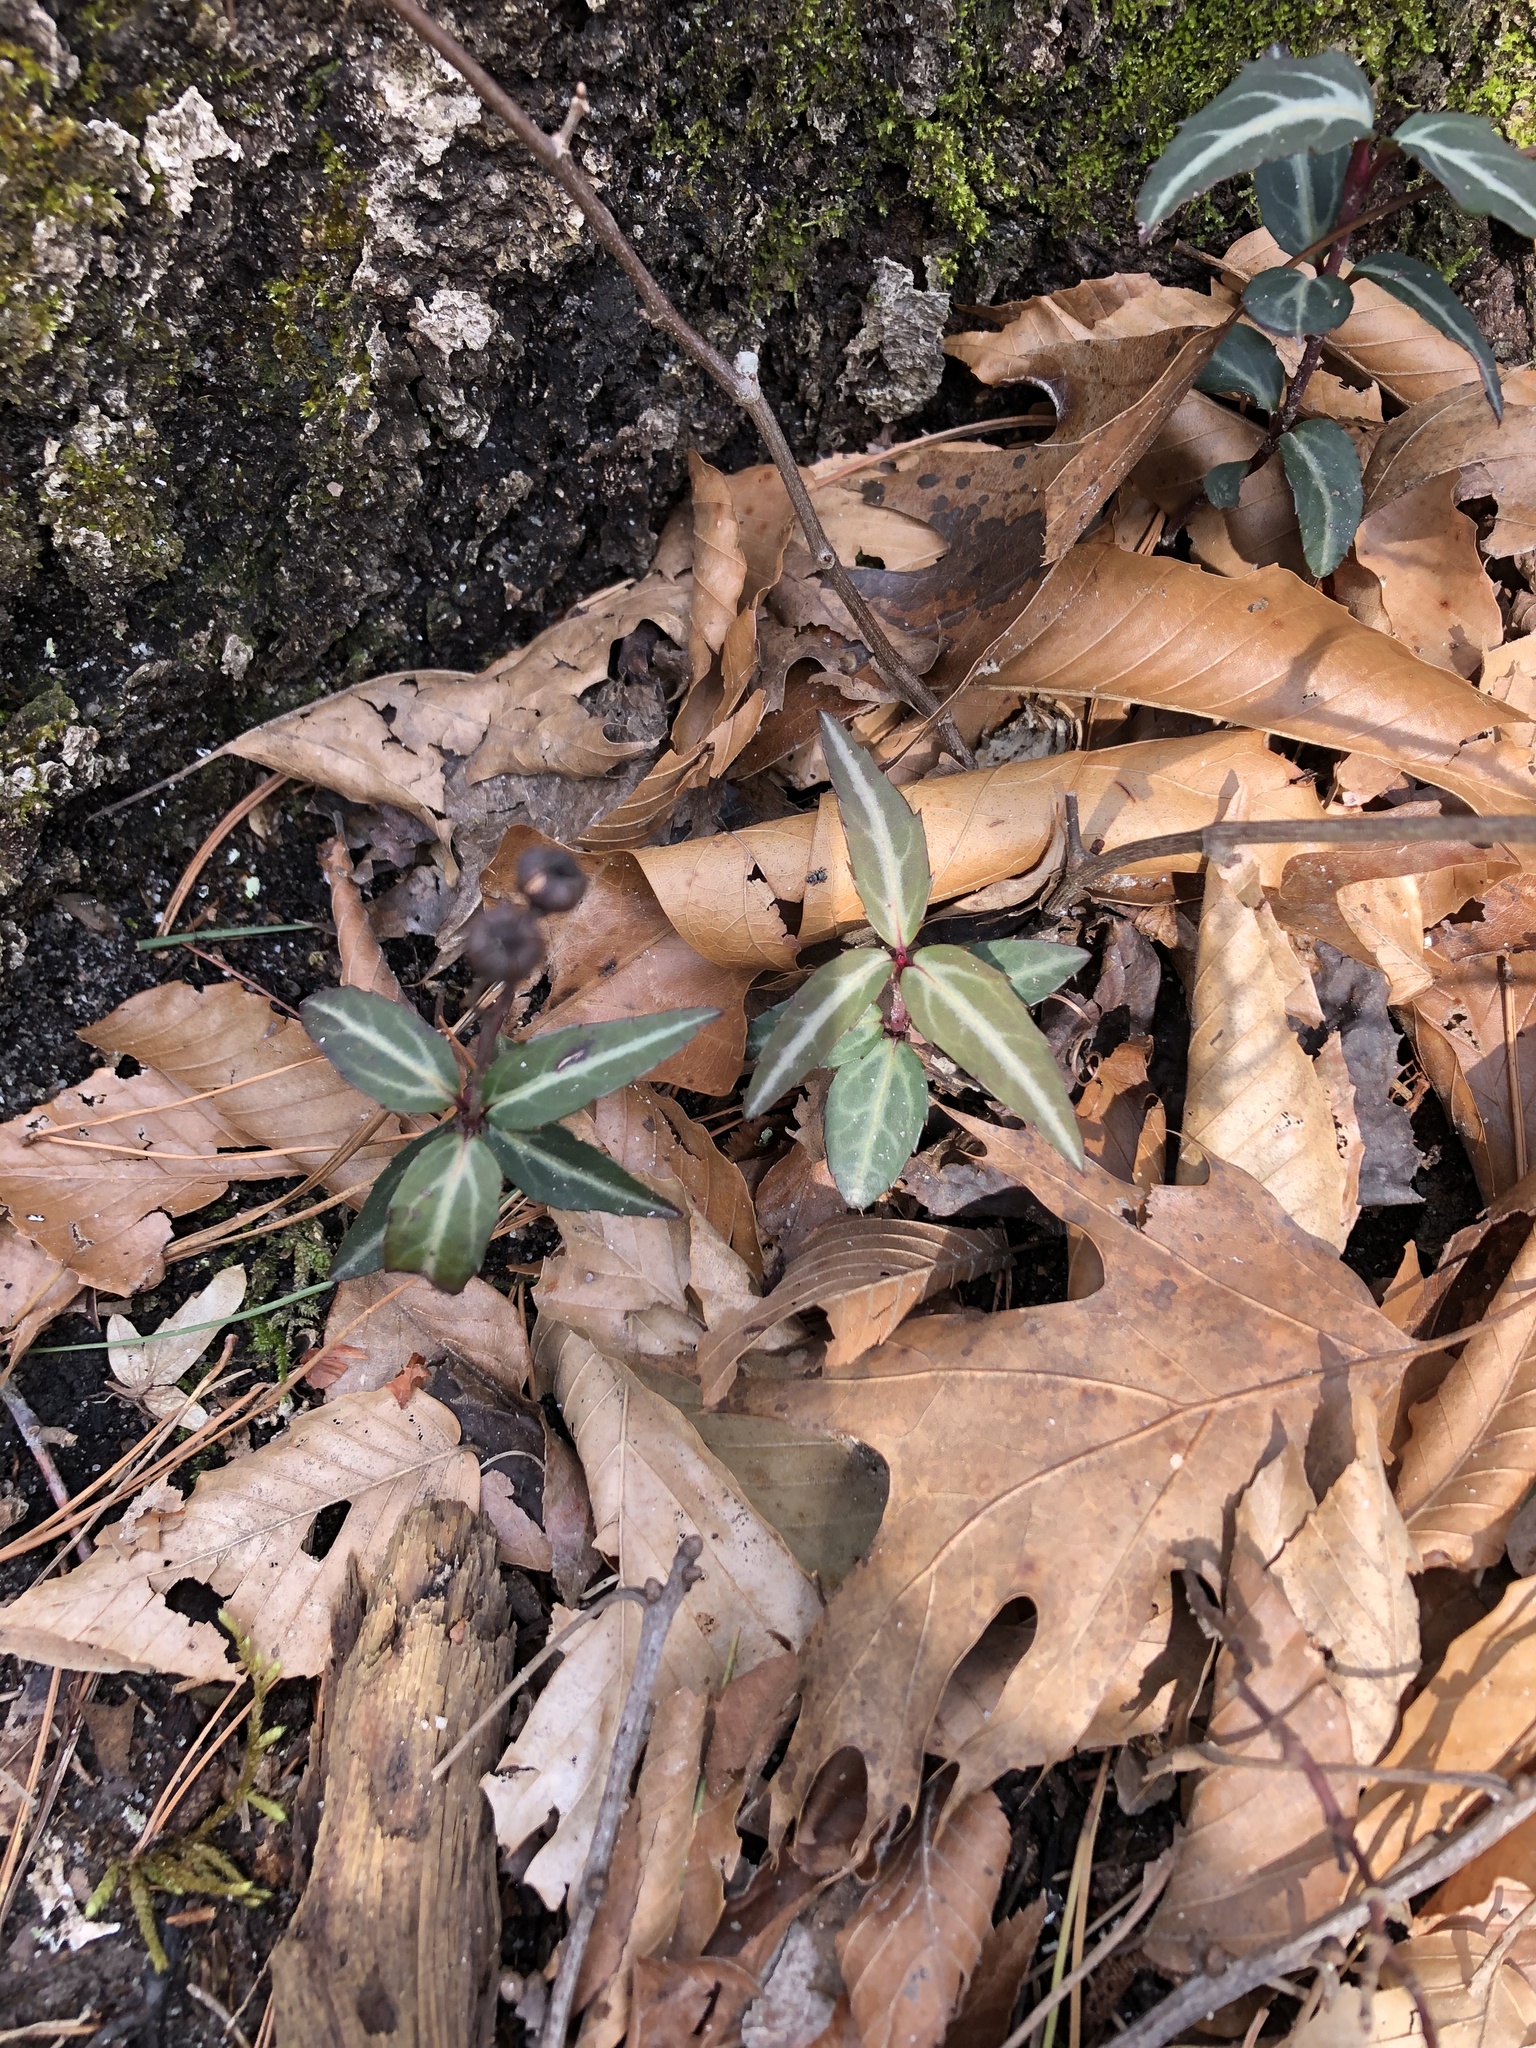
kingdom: Plantae
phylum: Tracheophyta
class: Magnoliopsida
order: Ericales
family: Ericaceae
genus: Chimaphila
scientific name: Chimaphila maculata
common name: Spotted pipsissewa
